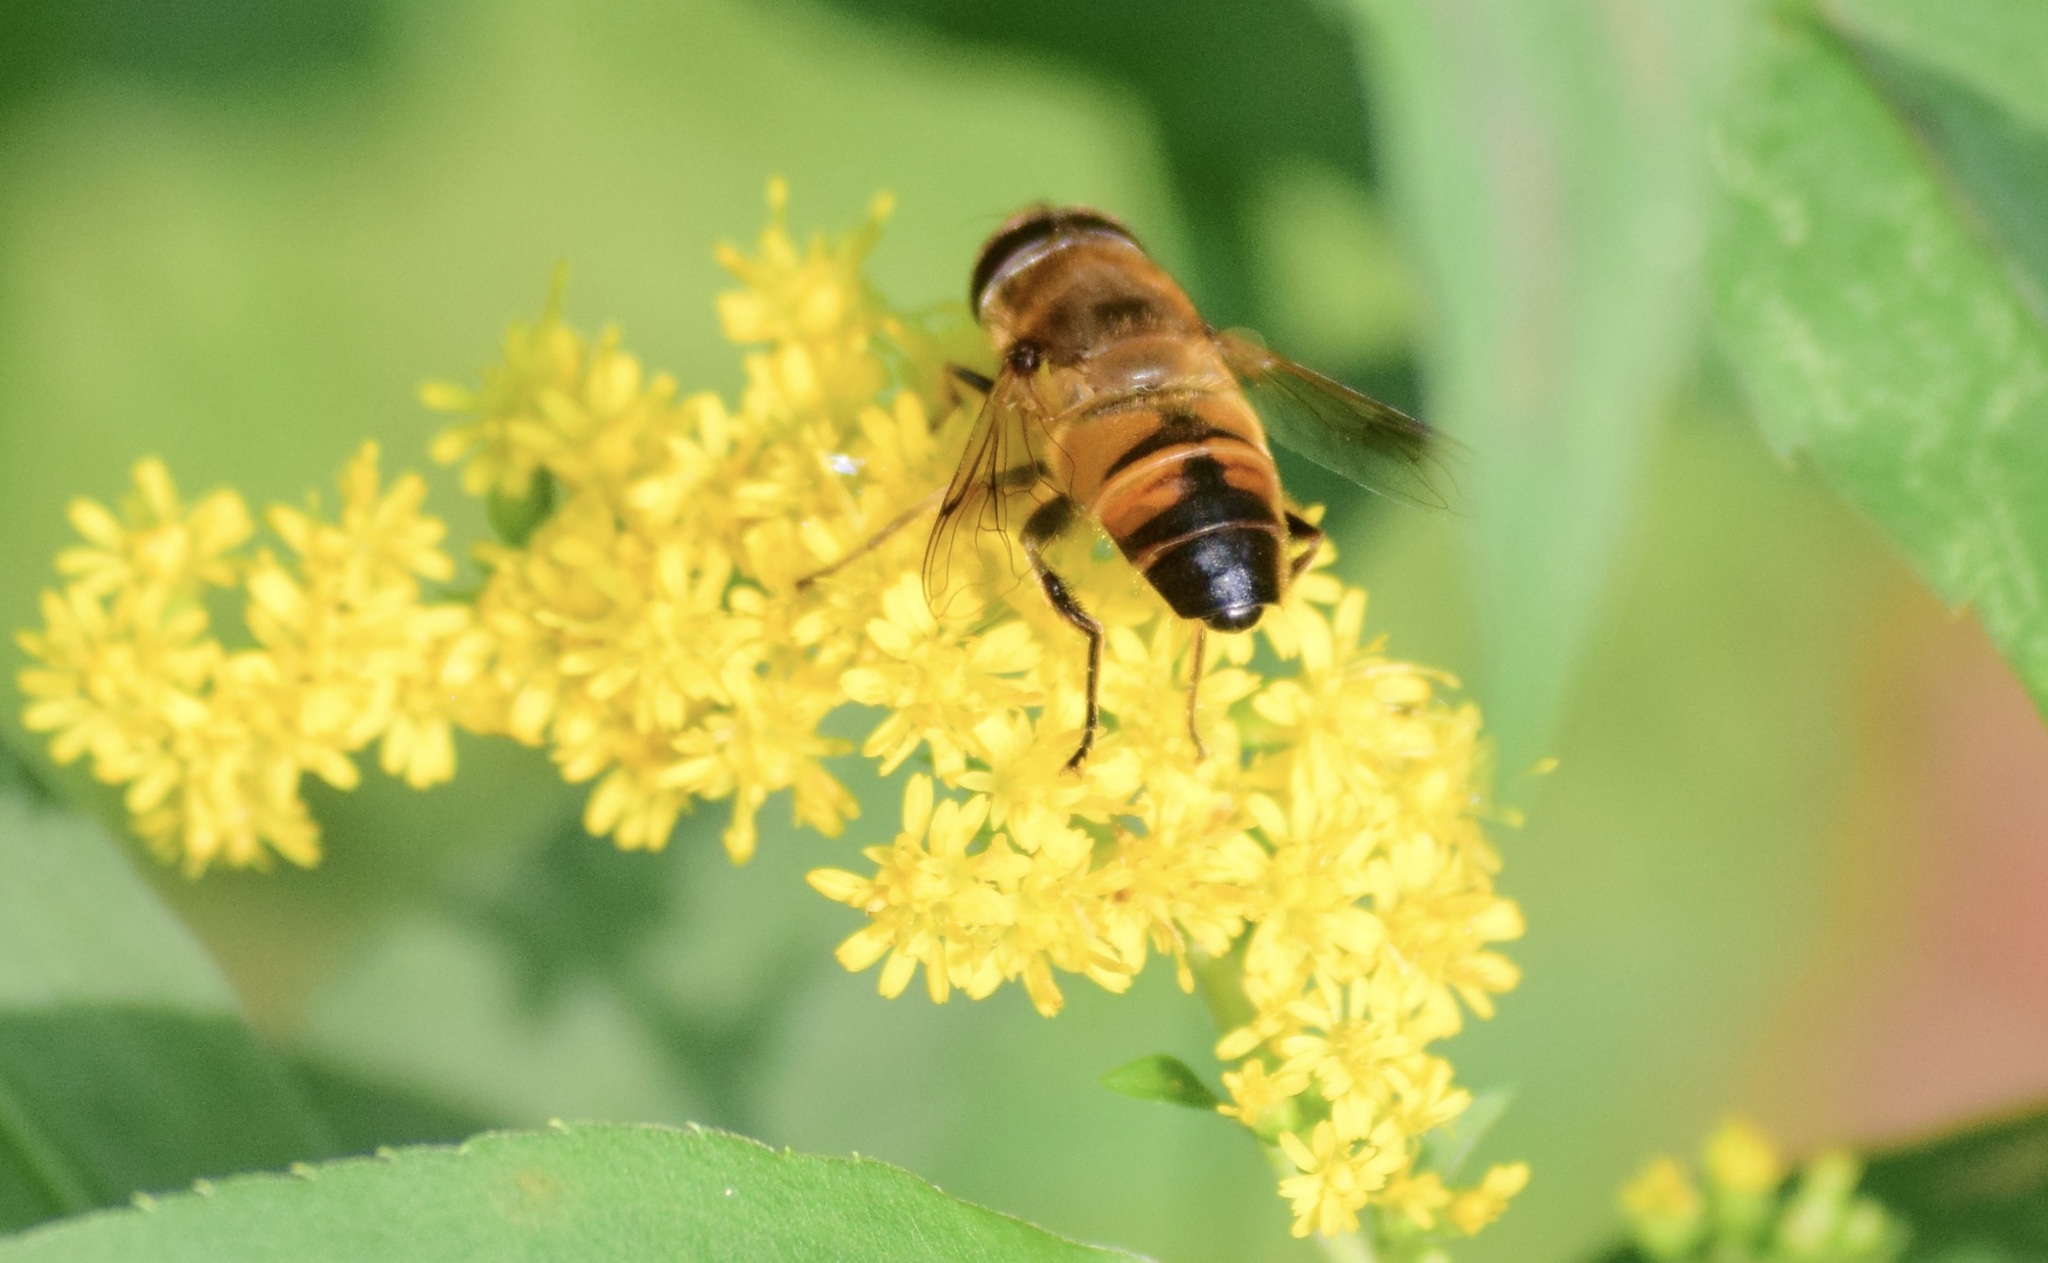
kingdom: Animalia
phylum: Arthropoda
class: Insecta
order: Diptera
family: Syrphidae
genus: Eristalis
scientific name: Eristalis tenax
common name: Drone fly
